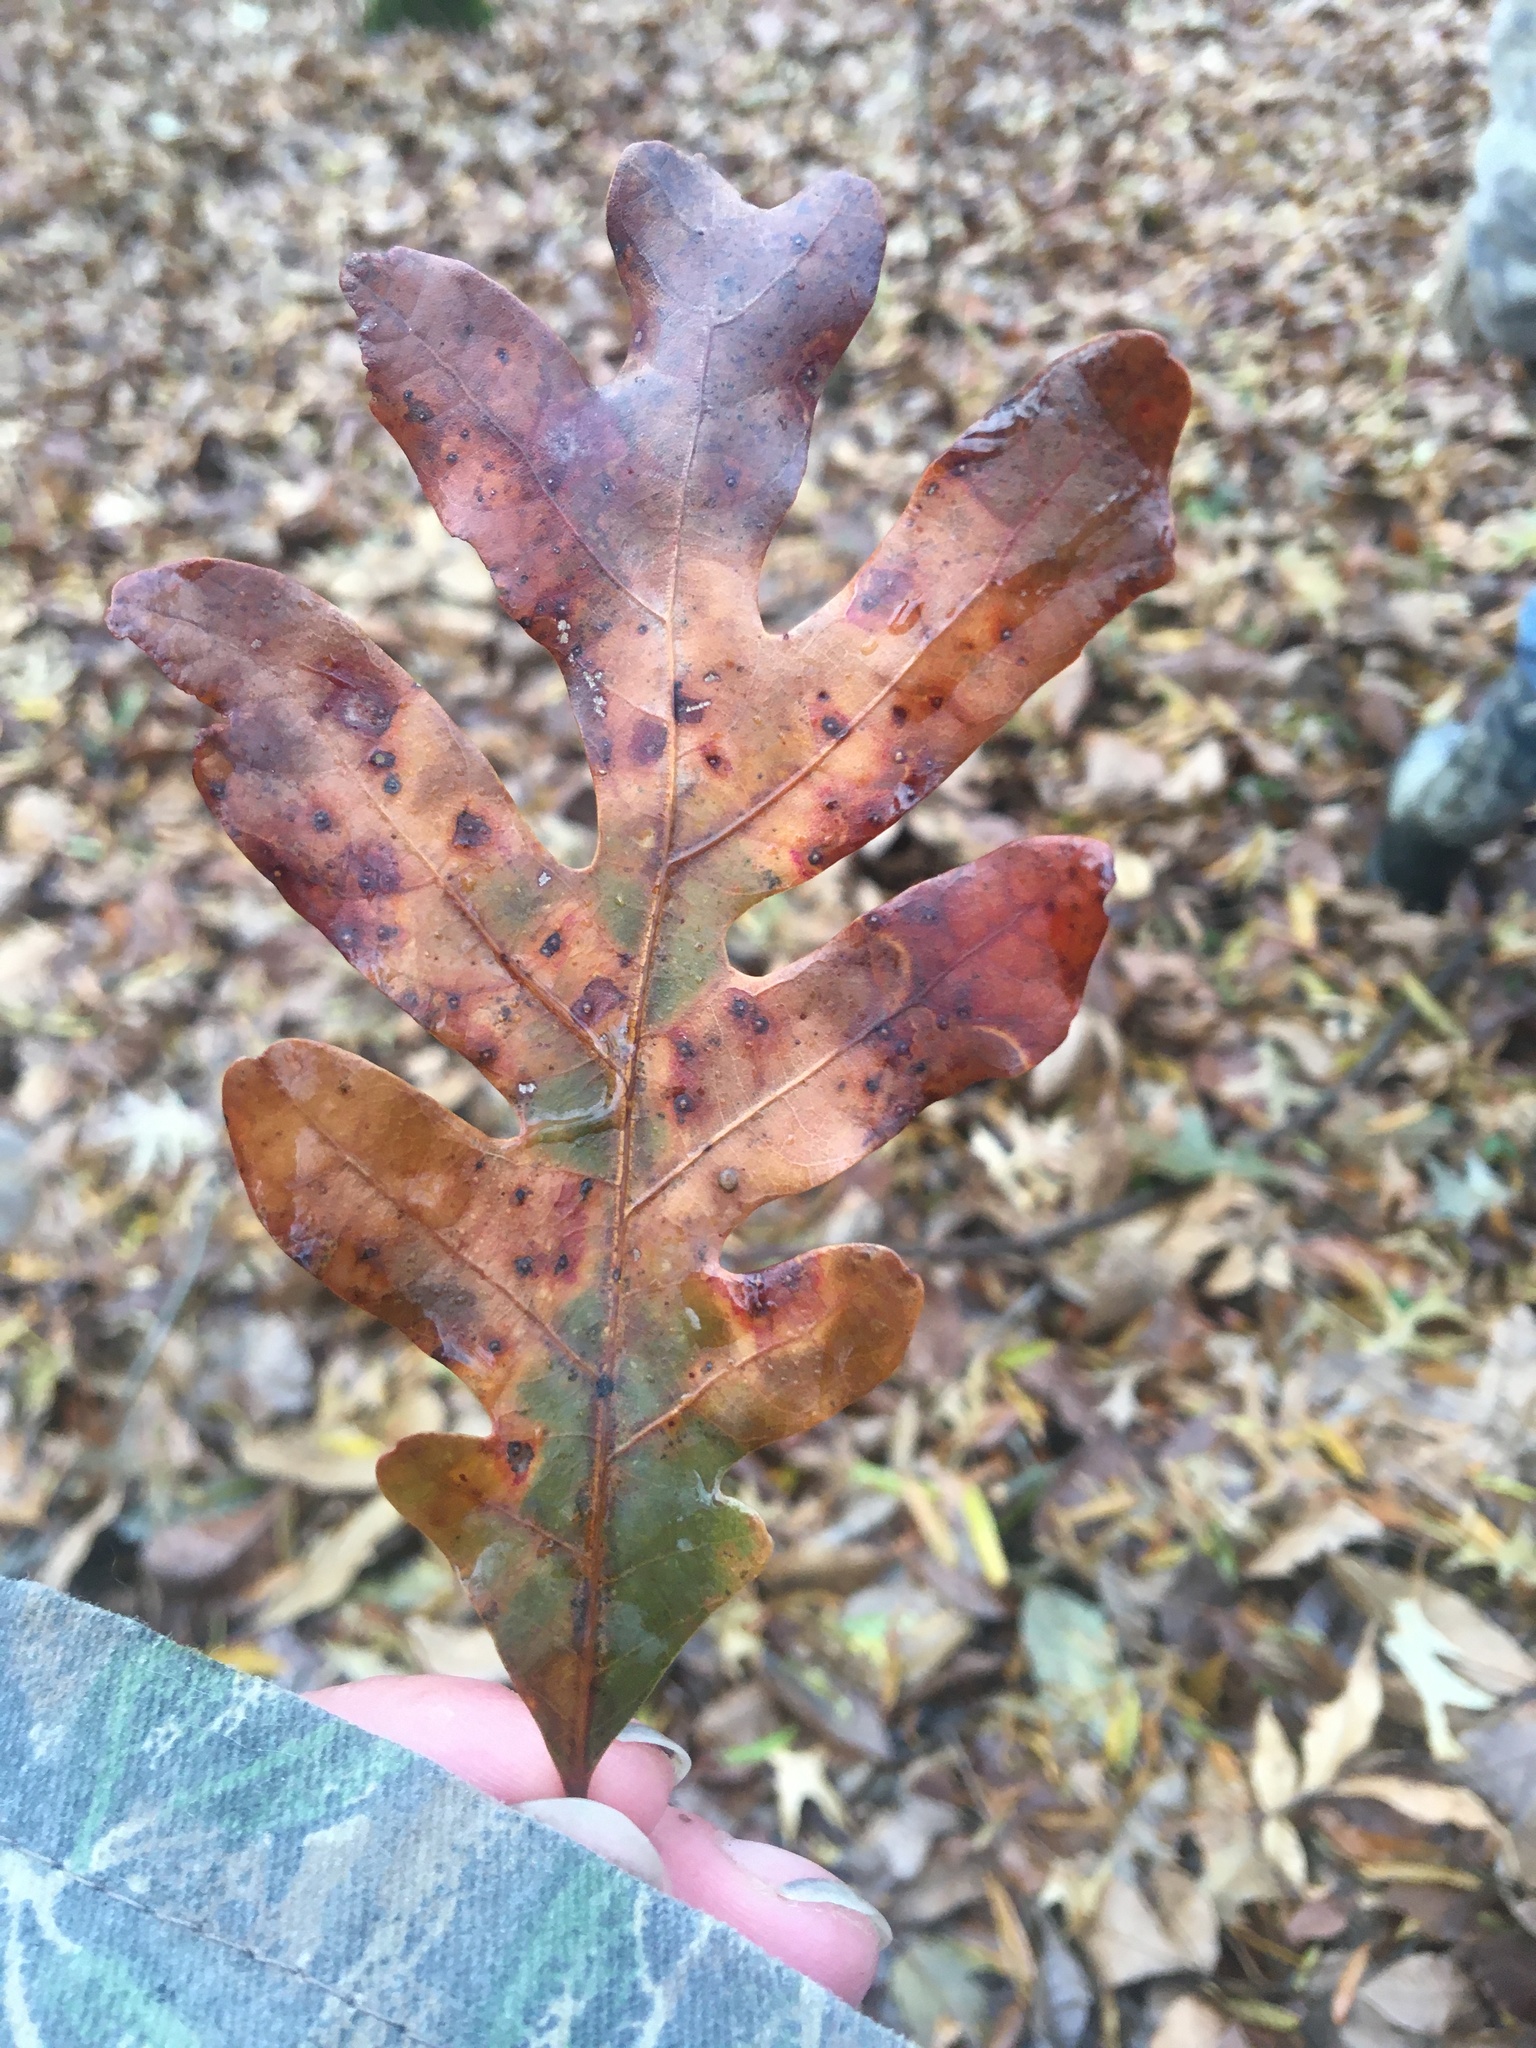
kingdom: Plantae
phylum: Tracheophyta
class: Magnoliopsida
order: Fagales
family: Fagaceae
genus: Quercus
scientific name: Quercus alba
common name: White oak
